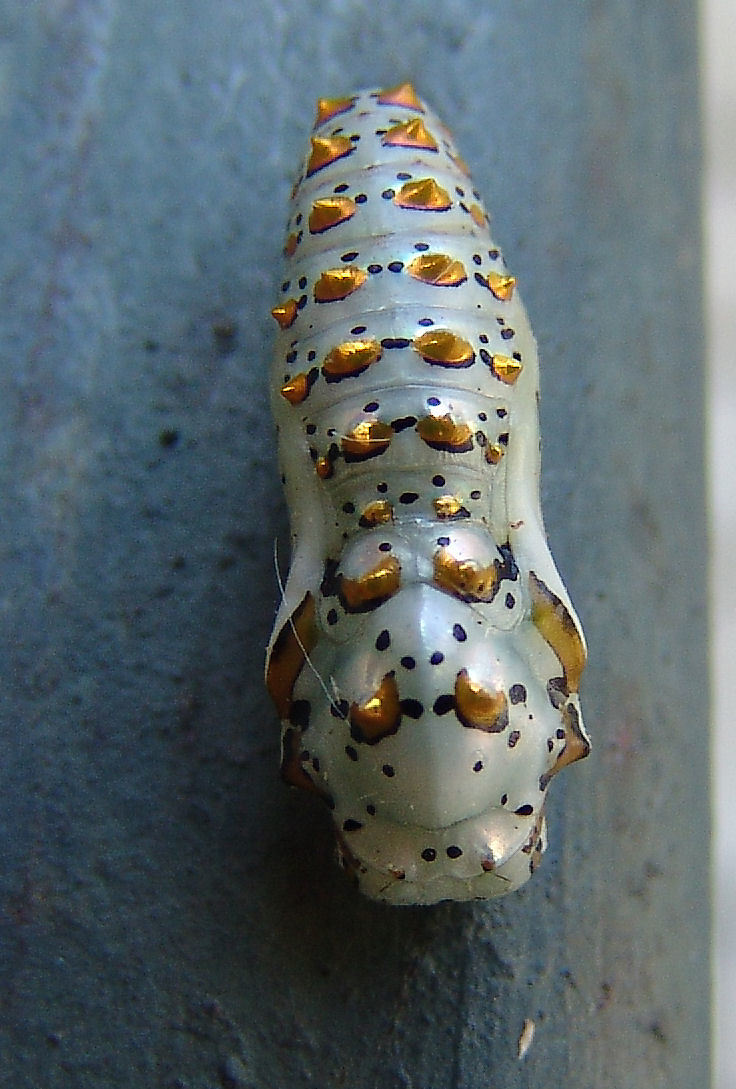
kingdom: Animalia
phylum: Arthropoda
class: Insecta
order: Lepidoptera
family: Nymphalidae
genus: Euptoieta
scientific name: Euptoieta claudia
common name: Variegated fritillary
